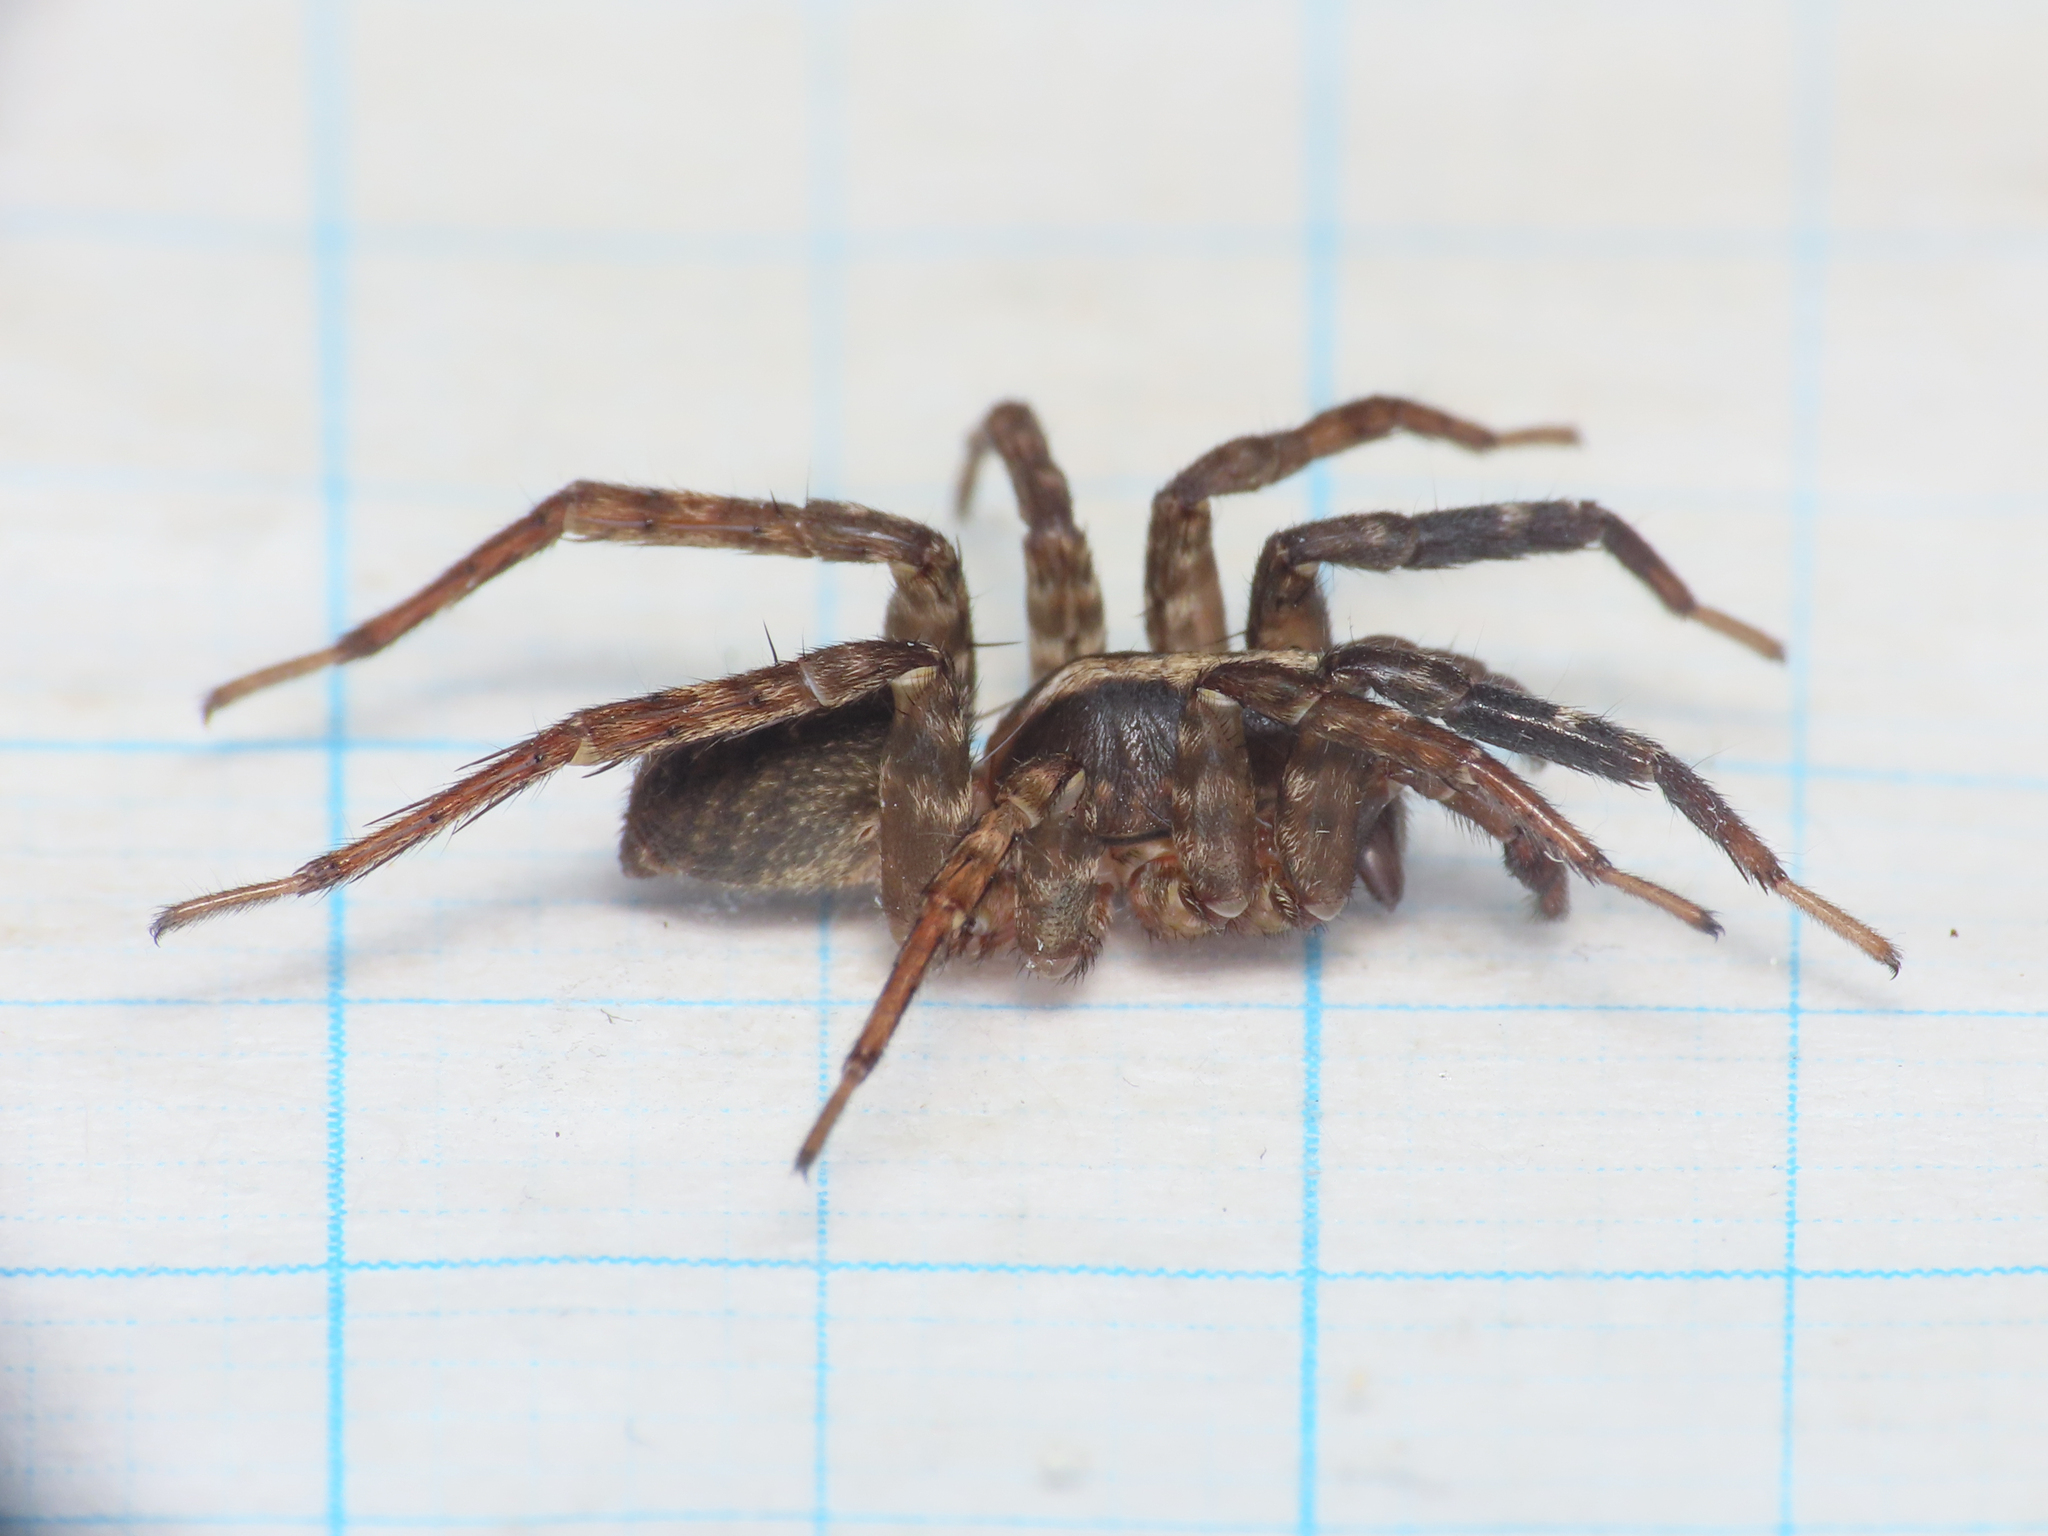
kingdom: Animalia
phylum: Arthropoda
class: Arachnida
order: Araneae
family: Lycosidae
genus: Trochosa
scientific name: Trochosa hispanica
